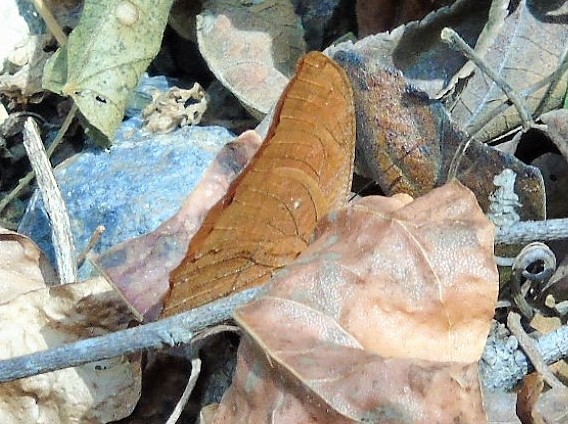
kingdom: Animalia
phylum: Arthropoda
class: Insecta
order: Lepidoptera
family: Nymphalidae
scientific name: Nymphalidae
